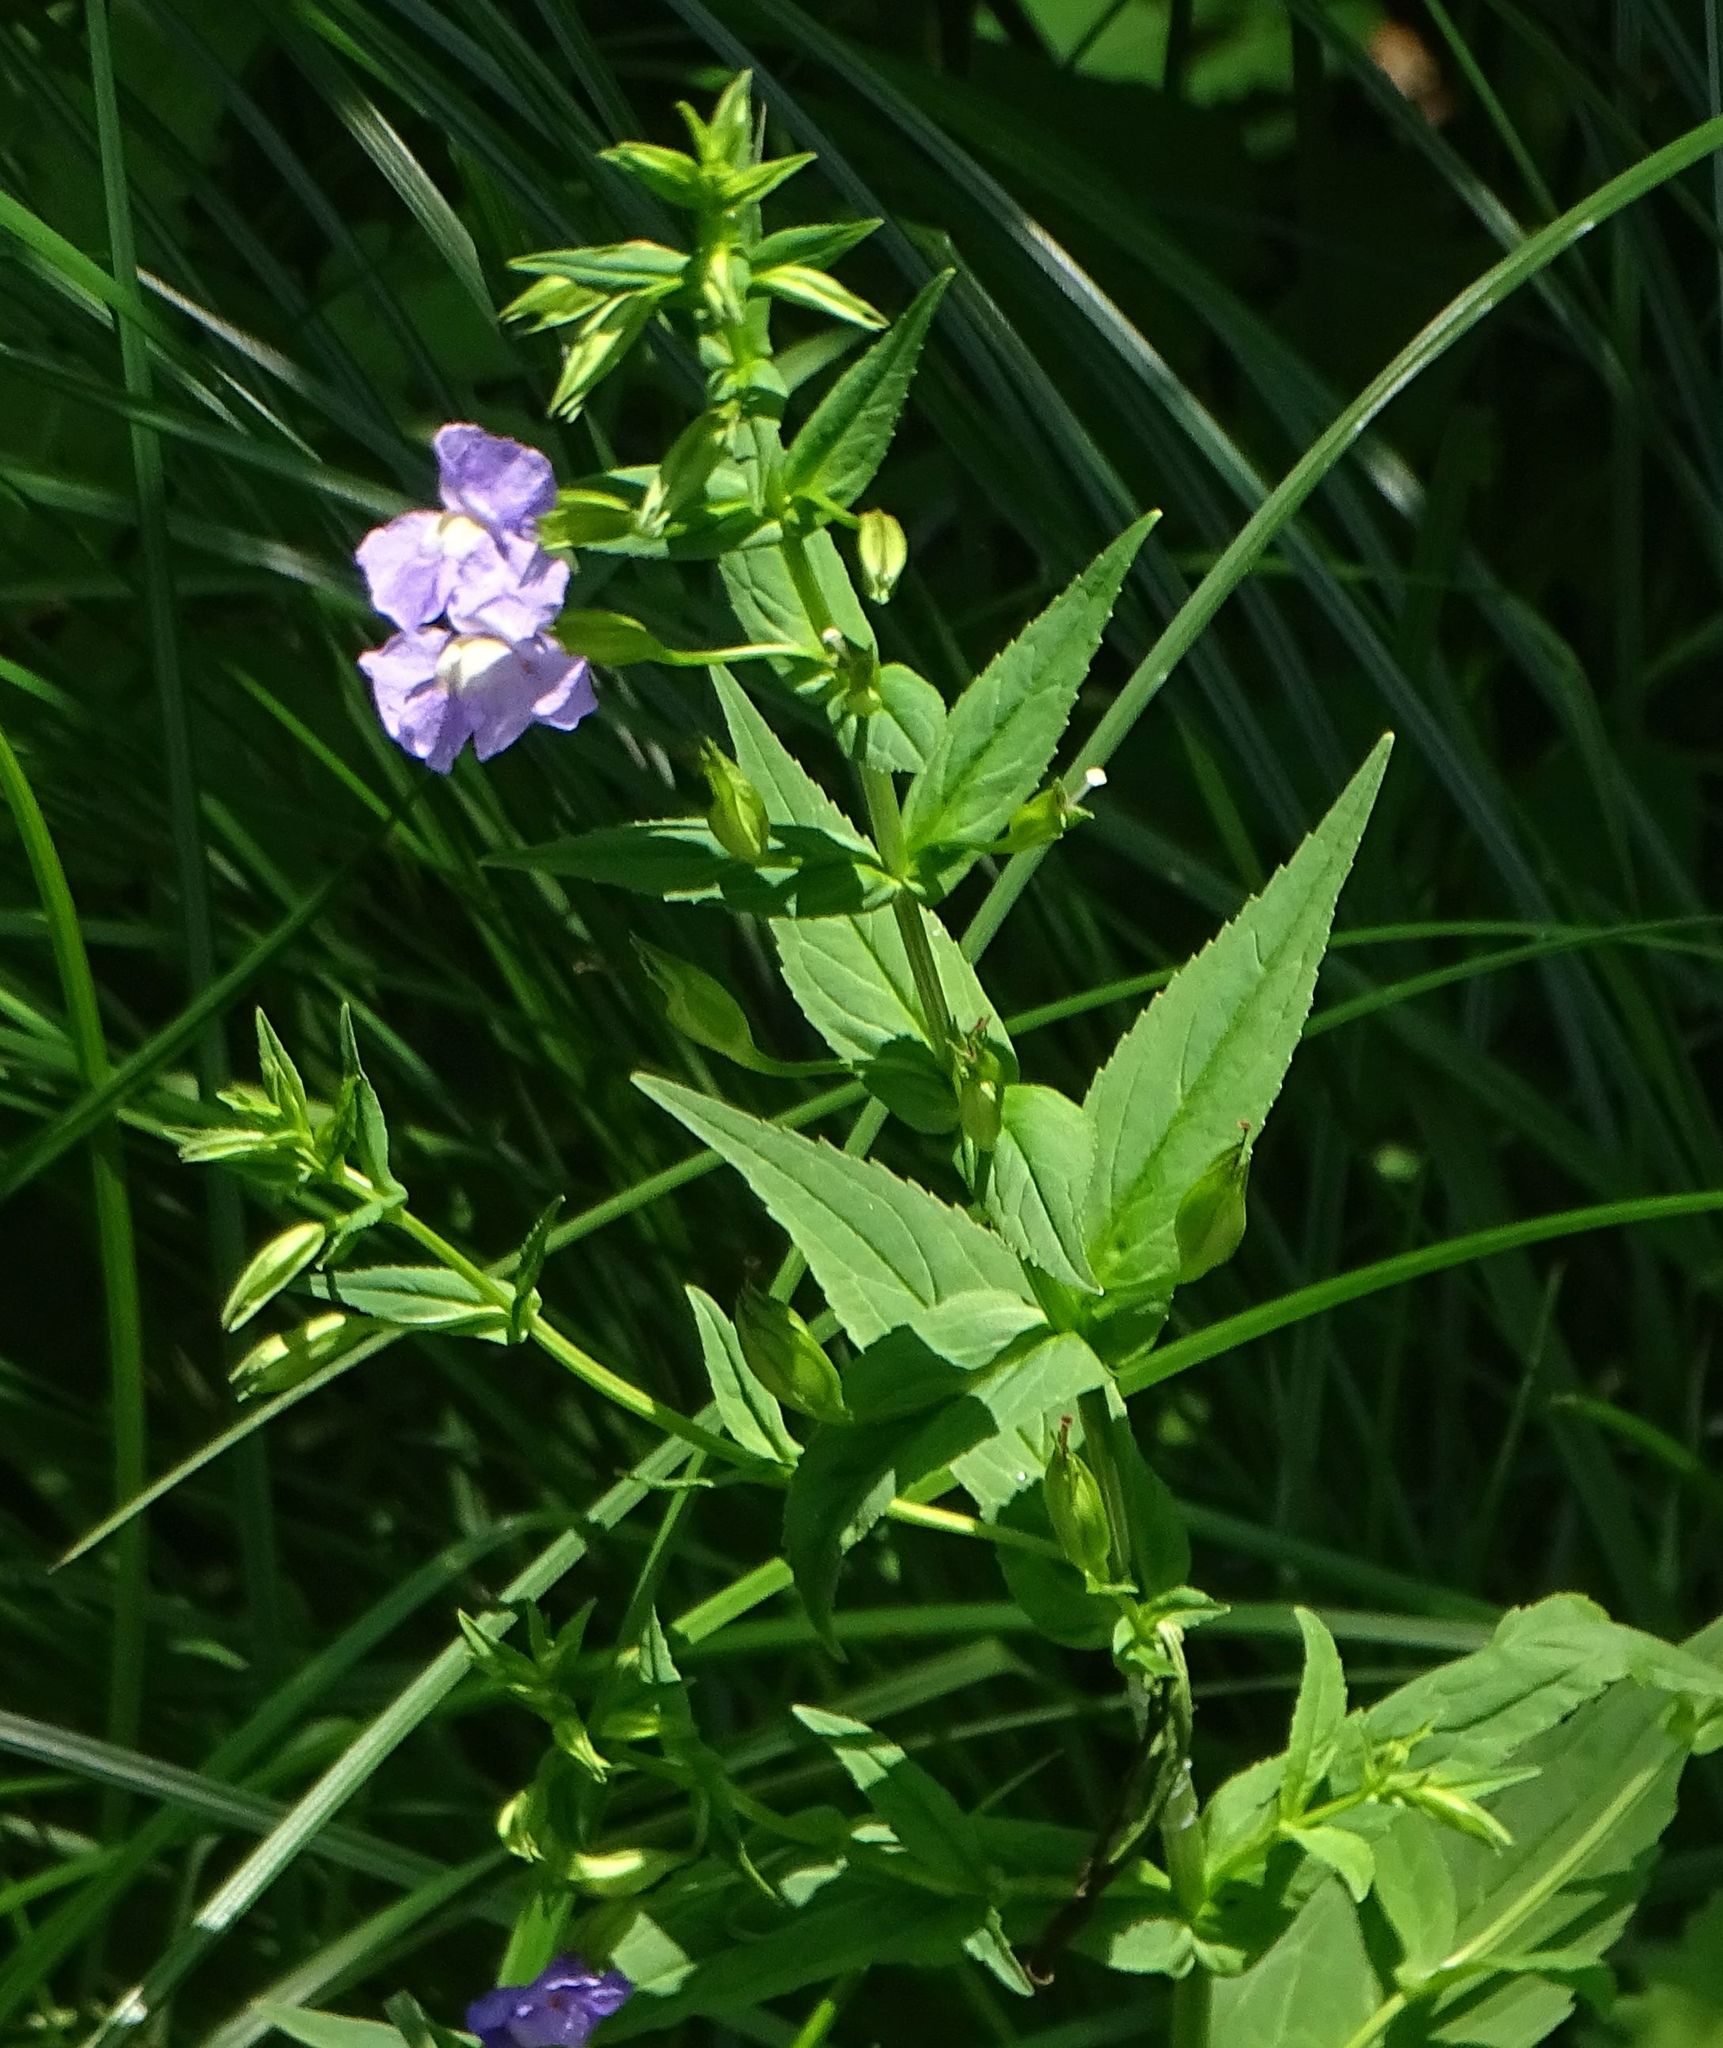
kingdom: Plantae
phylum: Tracheophyta
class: Magnoliopsida
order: Lamiales
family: Phrymaceae
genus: Mimulus
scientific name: Mimulus ringens
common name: Allegheny monkeyflower
